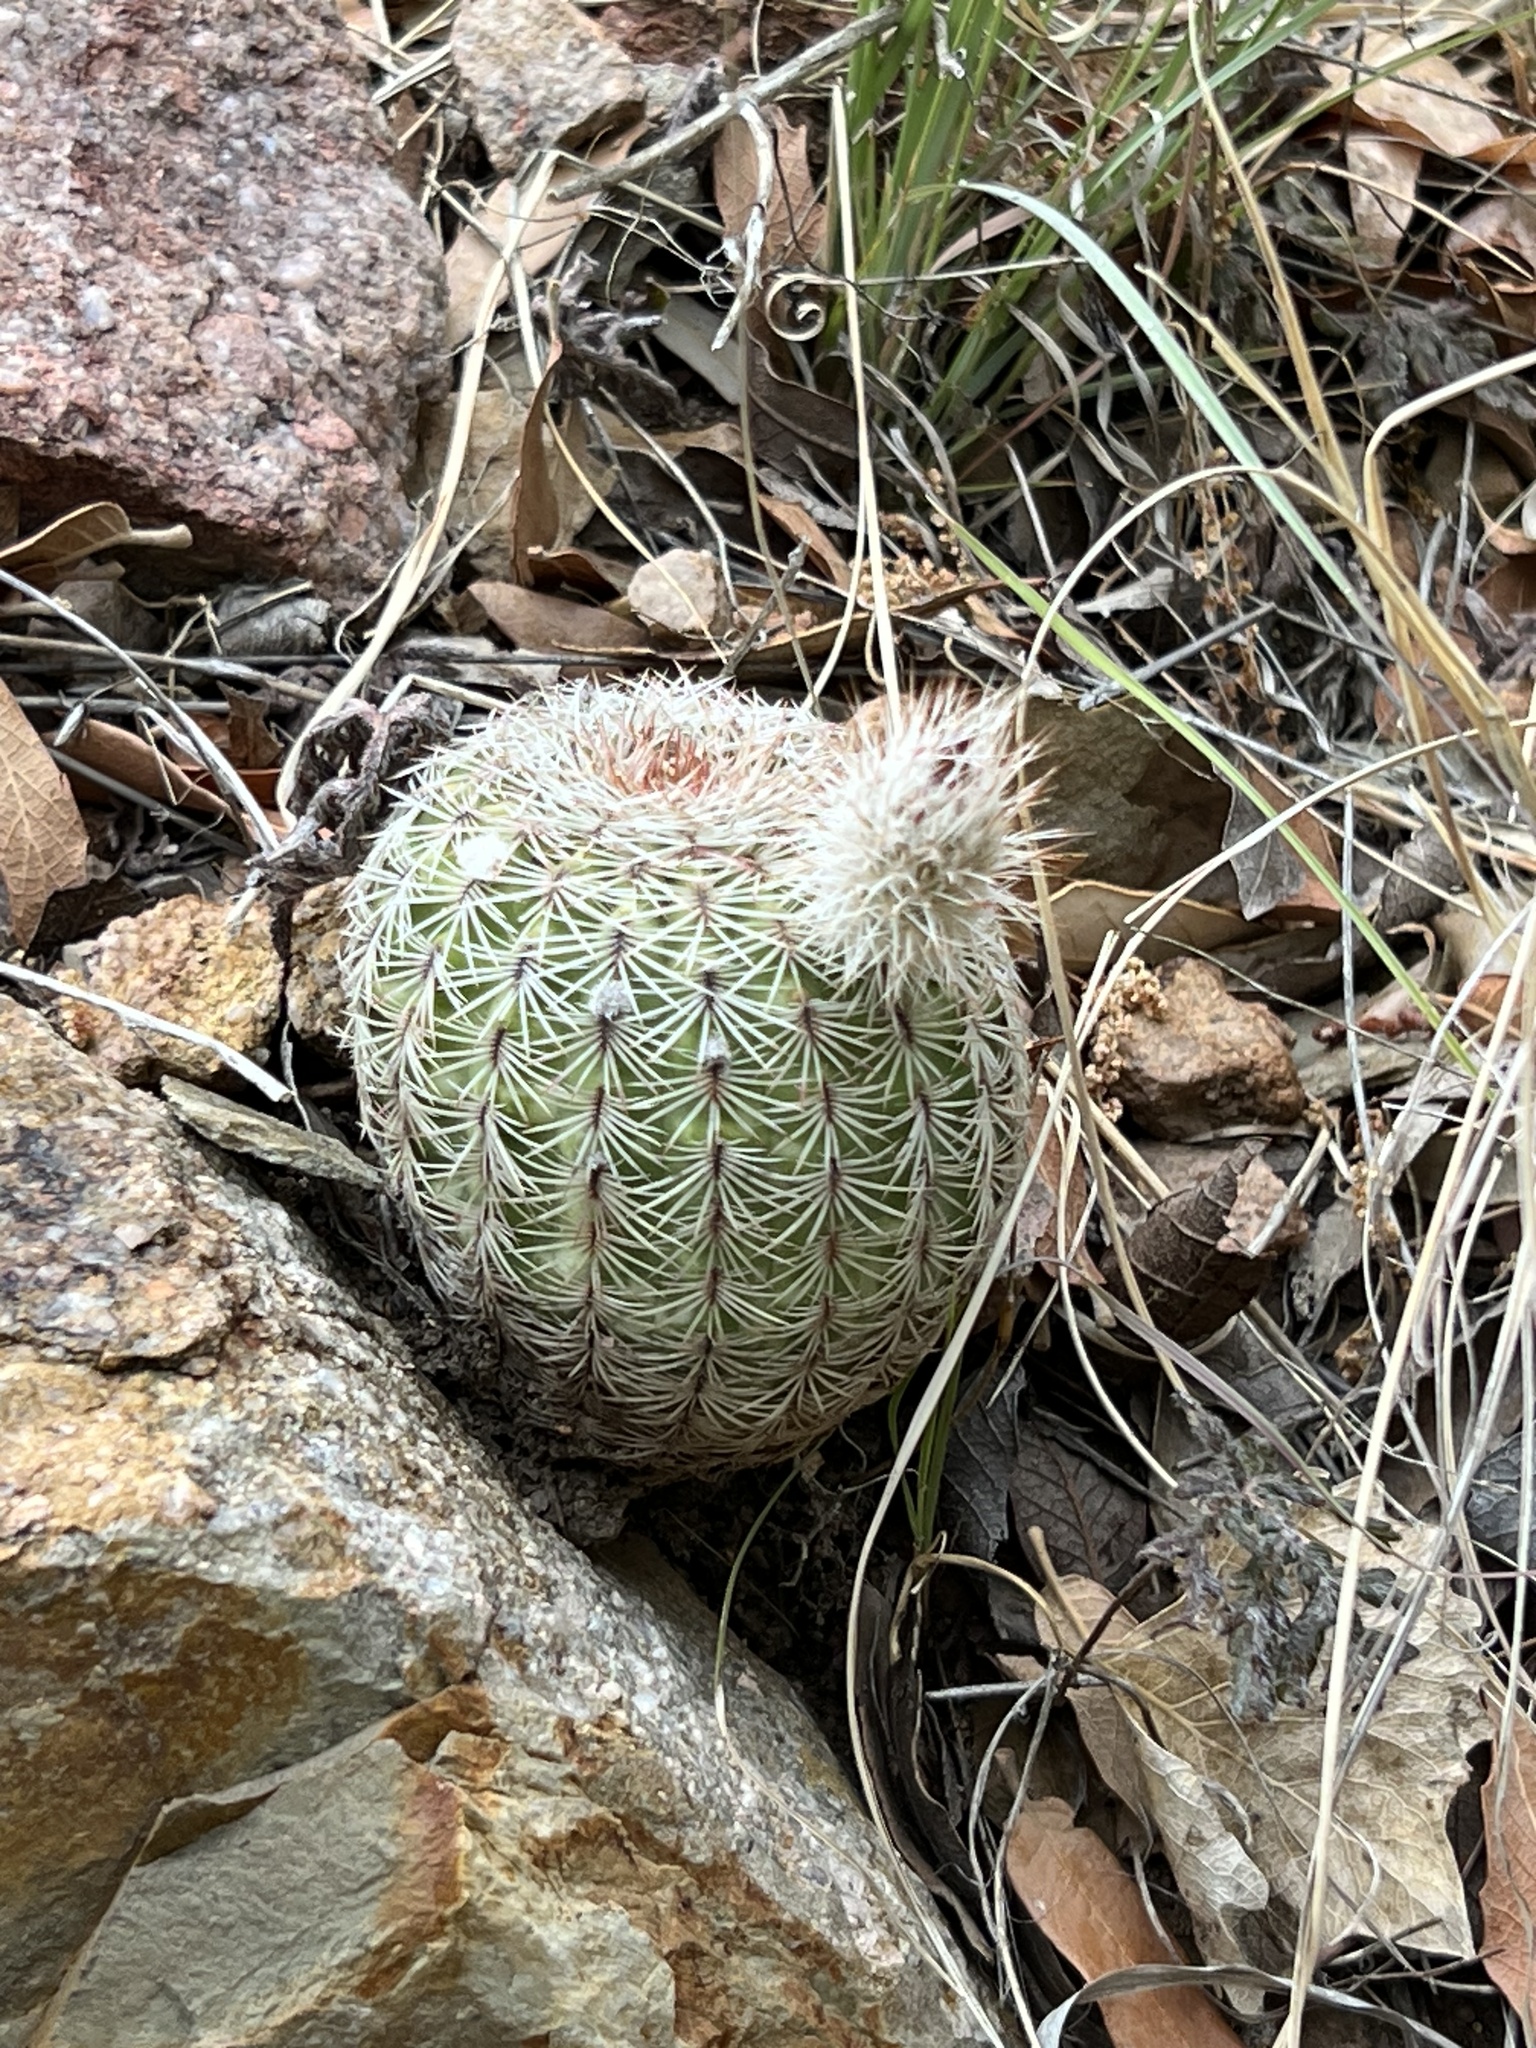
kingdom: Plantae
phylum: Tracheophyta
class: Magnoliopsida
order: Caryophyllales
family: Cactaceae
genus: Echinocereus
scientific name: Echinocereus rigidissimus
